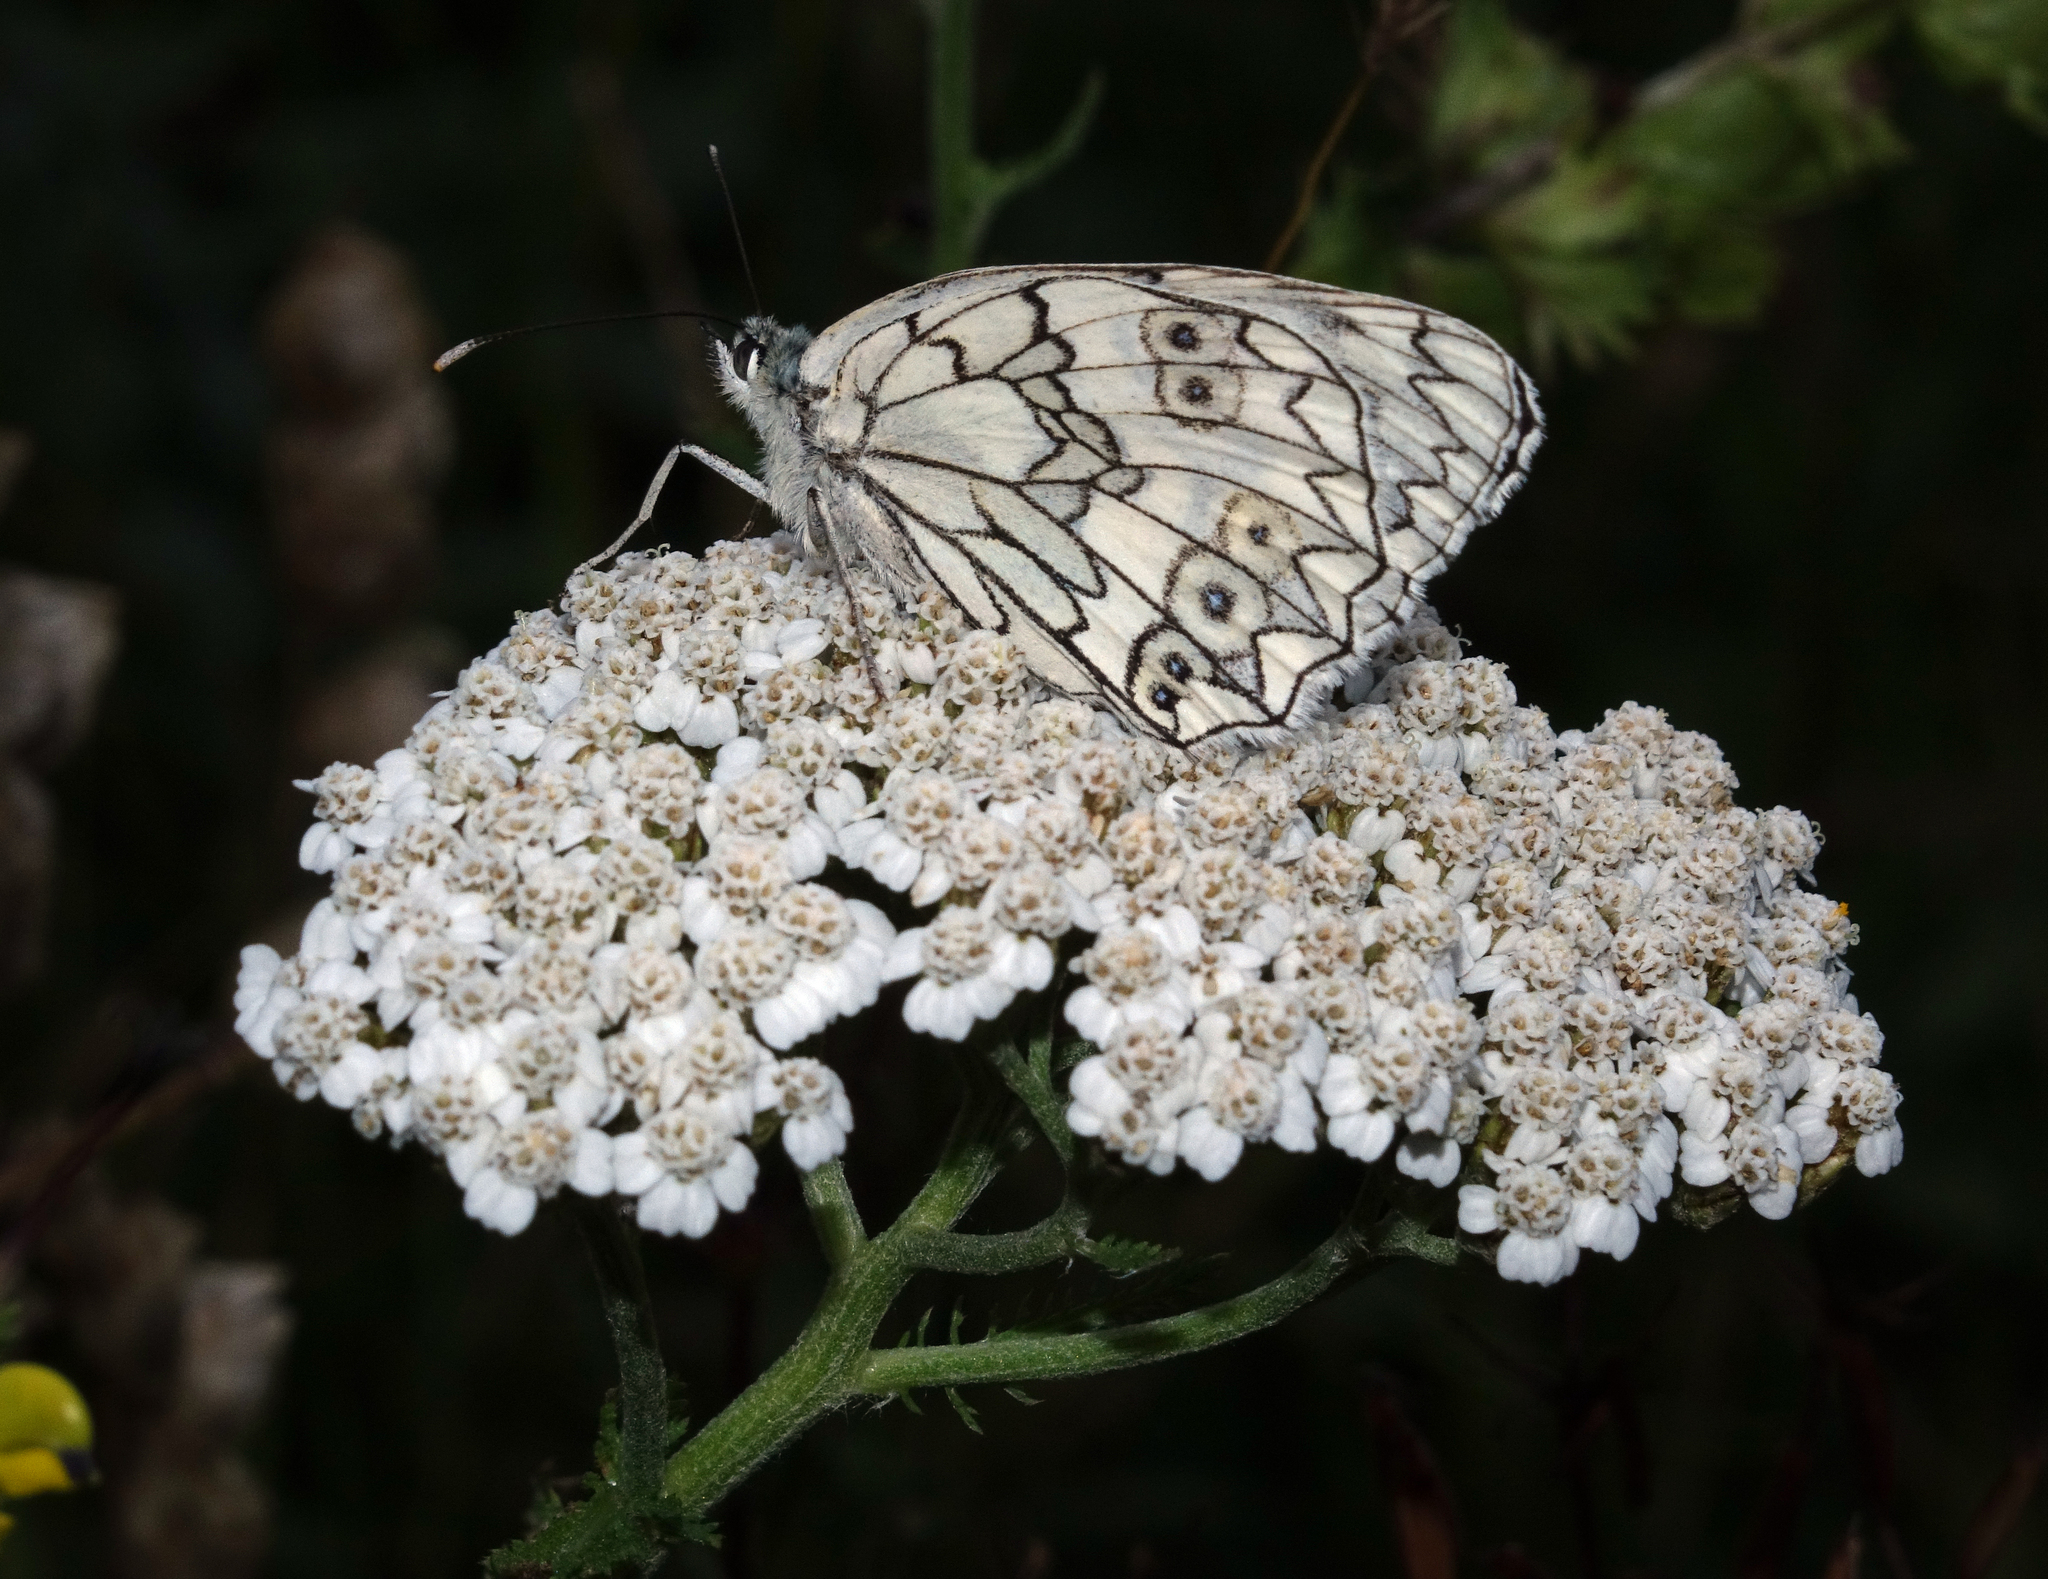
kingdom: Plantae
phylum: Tracheophyta
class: Magnoliopsida
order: Asterales
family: Asteraceae
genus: Achillea
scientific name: Achillea millefolium
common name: Yarrow
